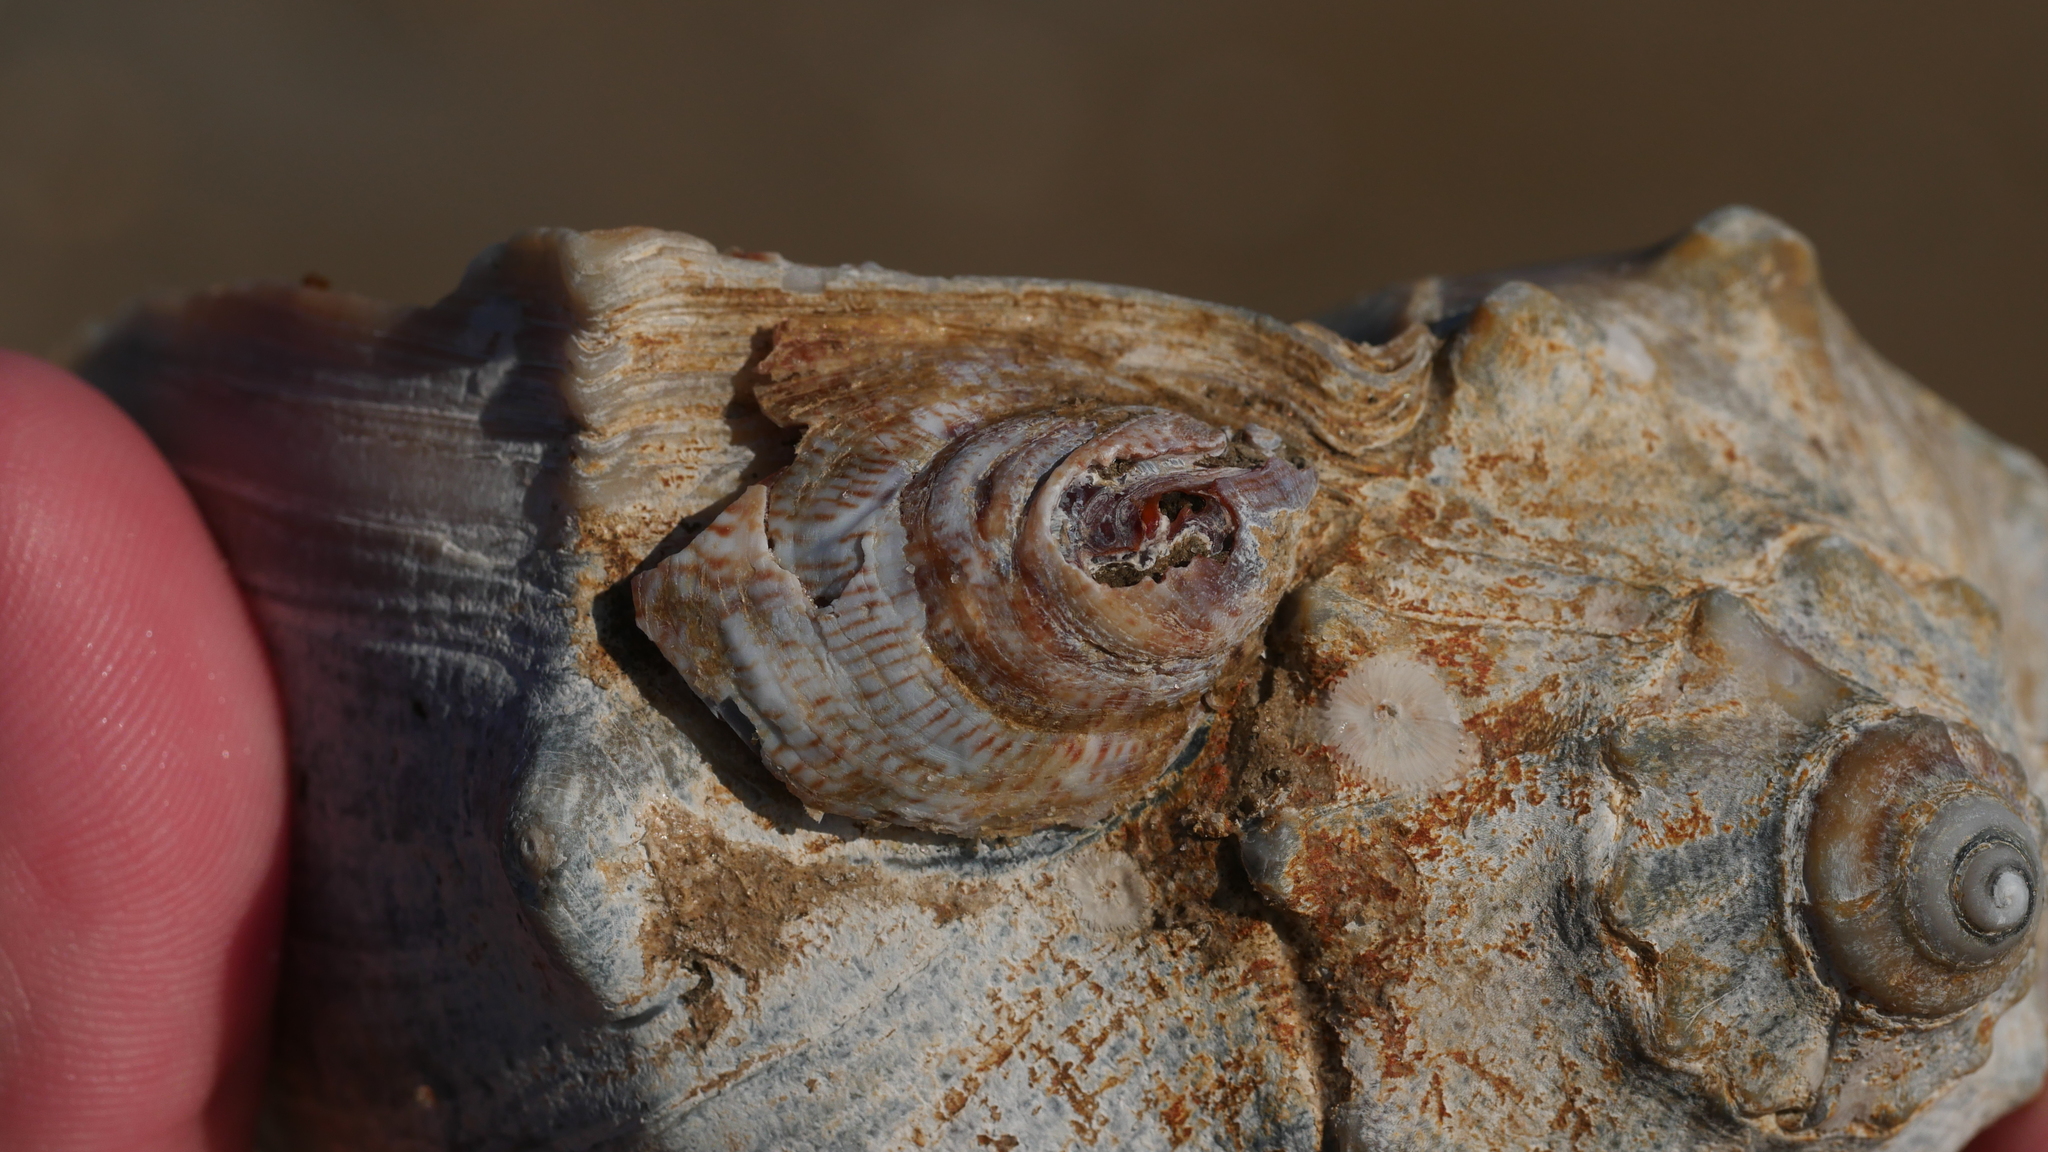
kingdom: Animalia
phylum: Mollusca
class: Gastropoda
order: Littorinimorpha
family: Calyptraeidae
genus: Crepidula
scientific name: Crepidula fornicata
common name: Slipper limpet
